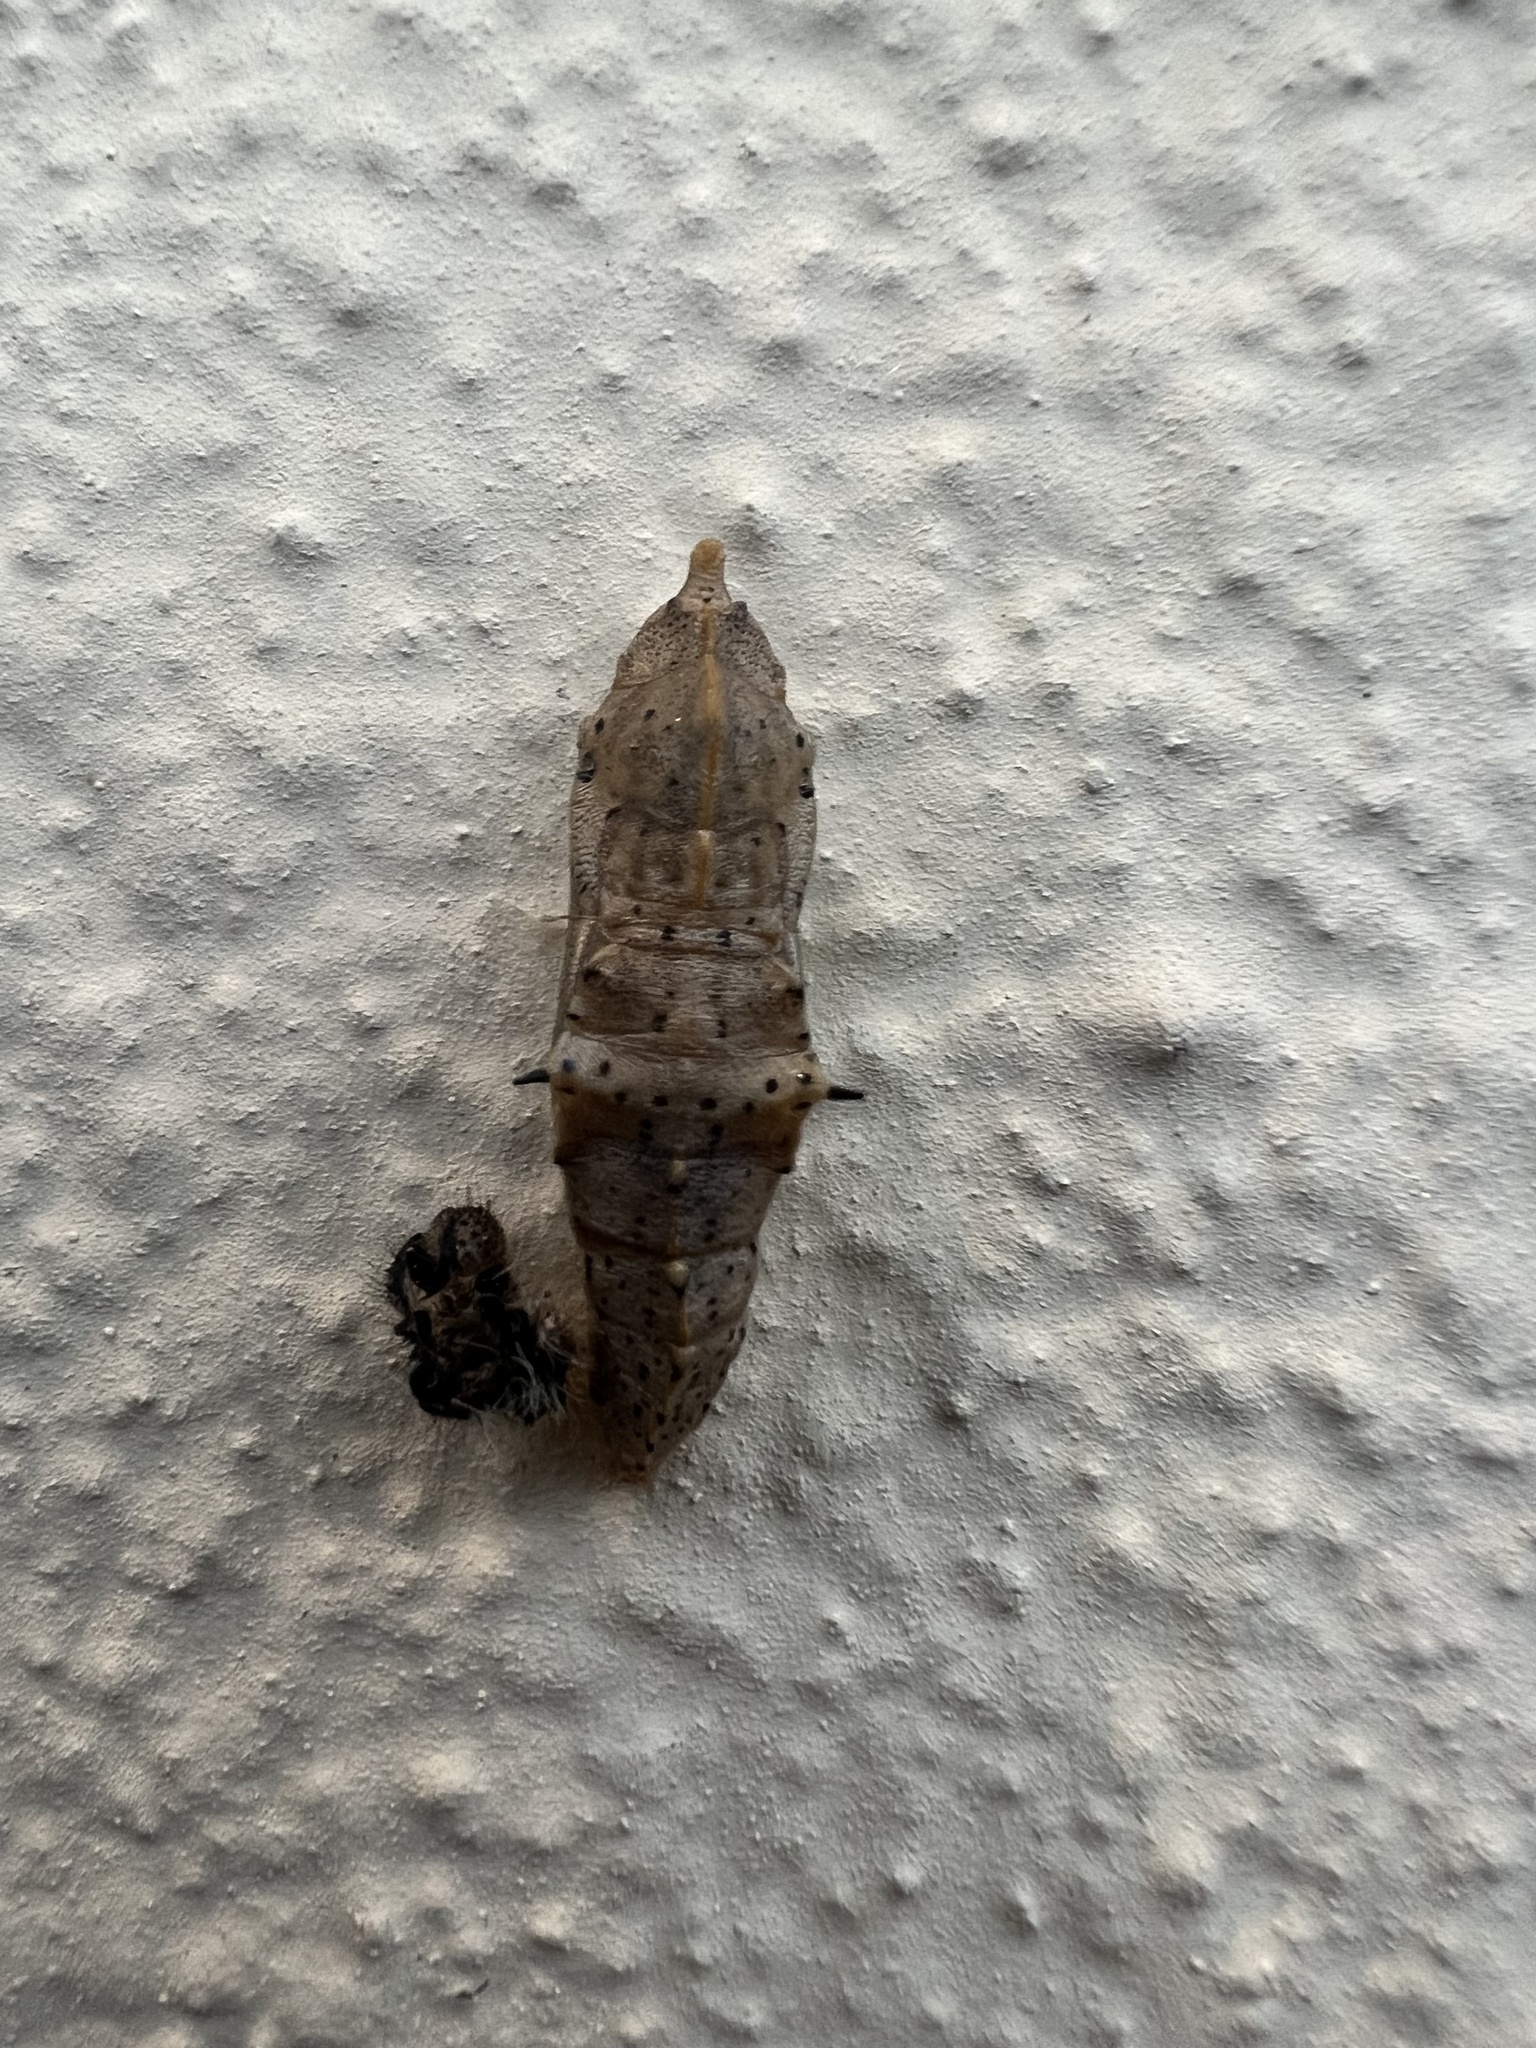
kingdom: Animalia
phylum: Arthropoda
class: Insecta
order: Lepidoptera
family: Pieridae
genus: Pieris
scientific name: Pieris brassicae
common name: Large white
